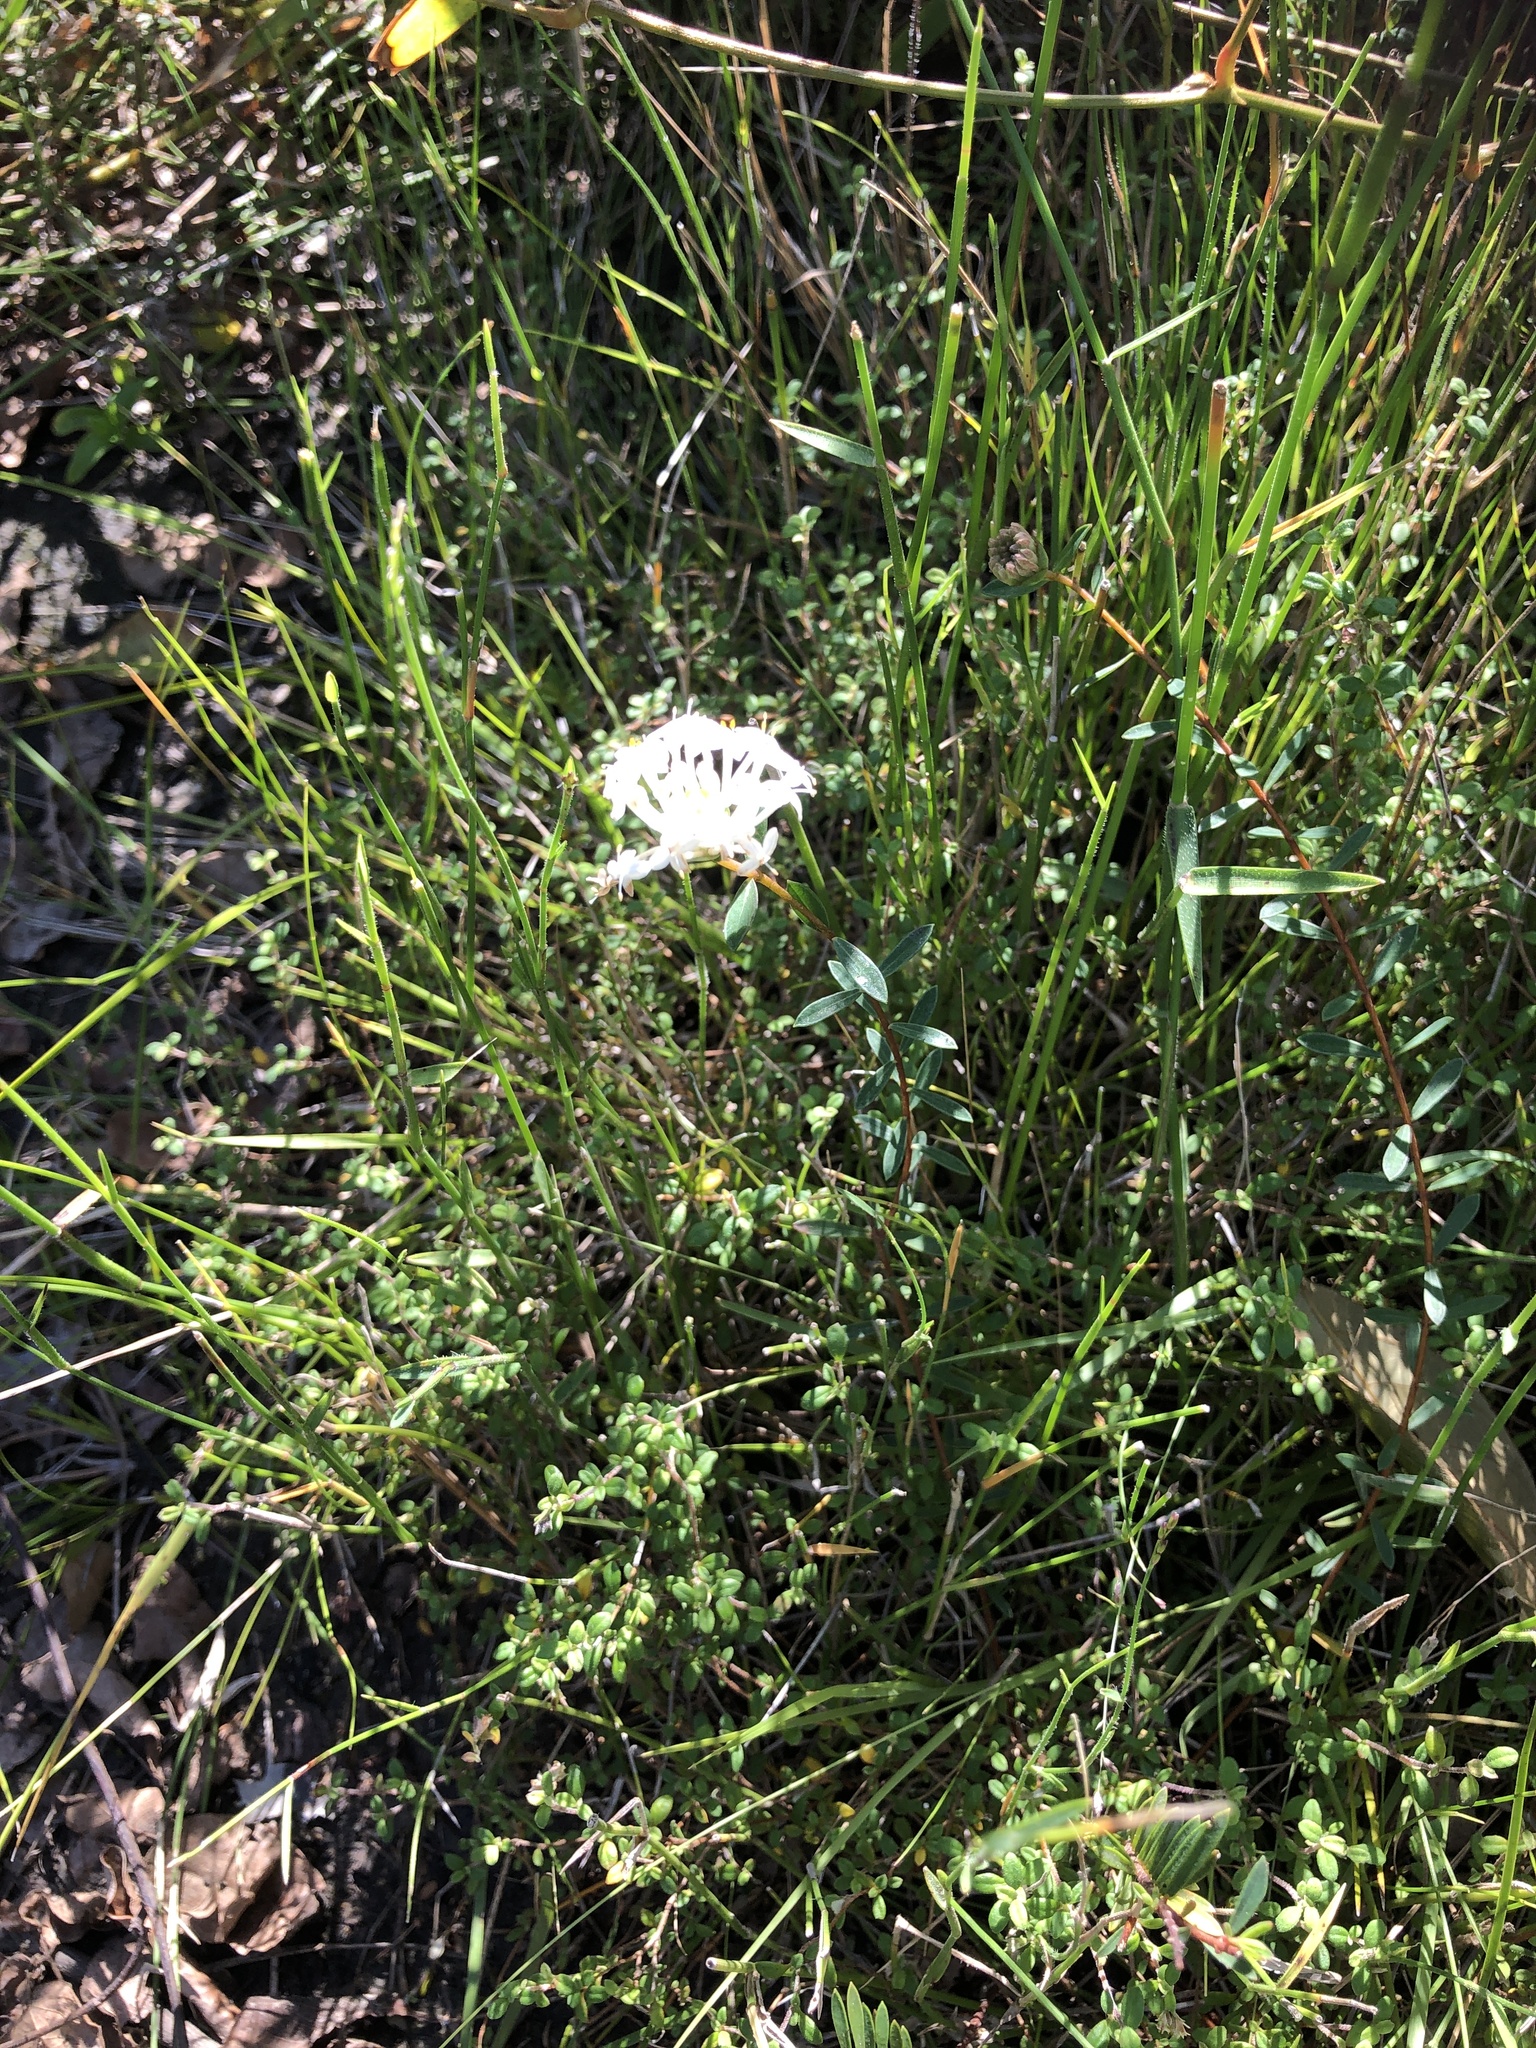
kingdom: Plantae
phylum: Tracheophyta
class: Magnoliopsida
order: Malvales
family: Thymelaeaceae
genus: Pimelea
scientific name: Pimelea linifolia
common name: Queen-of-the-bush
